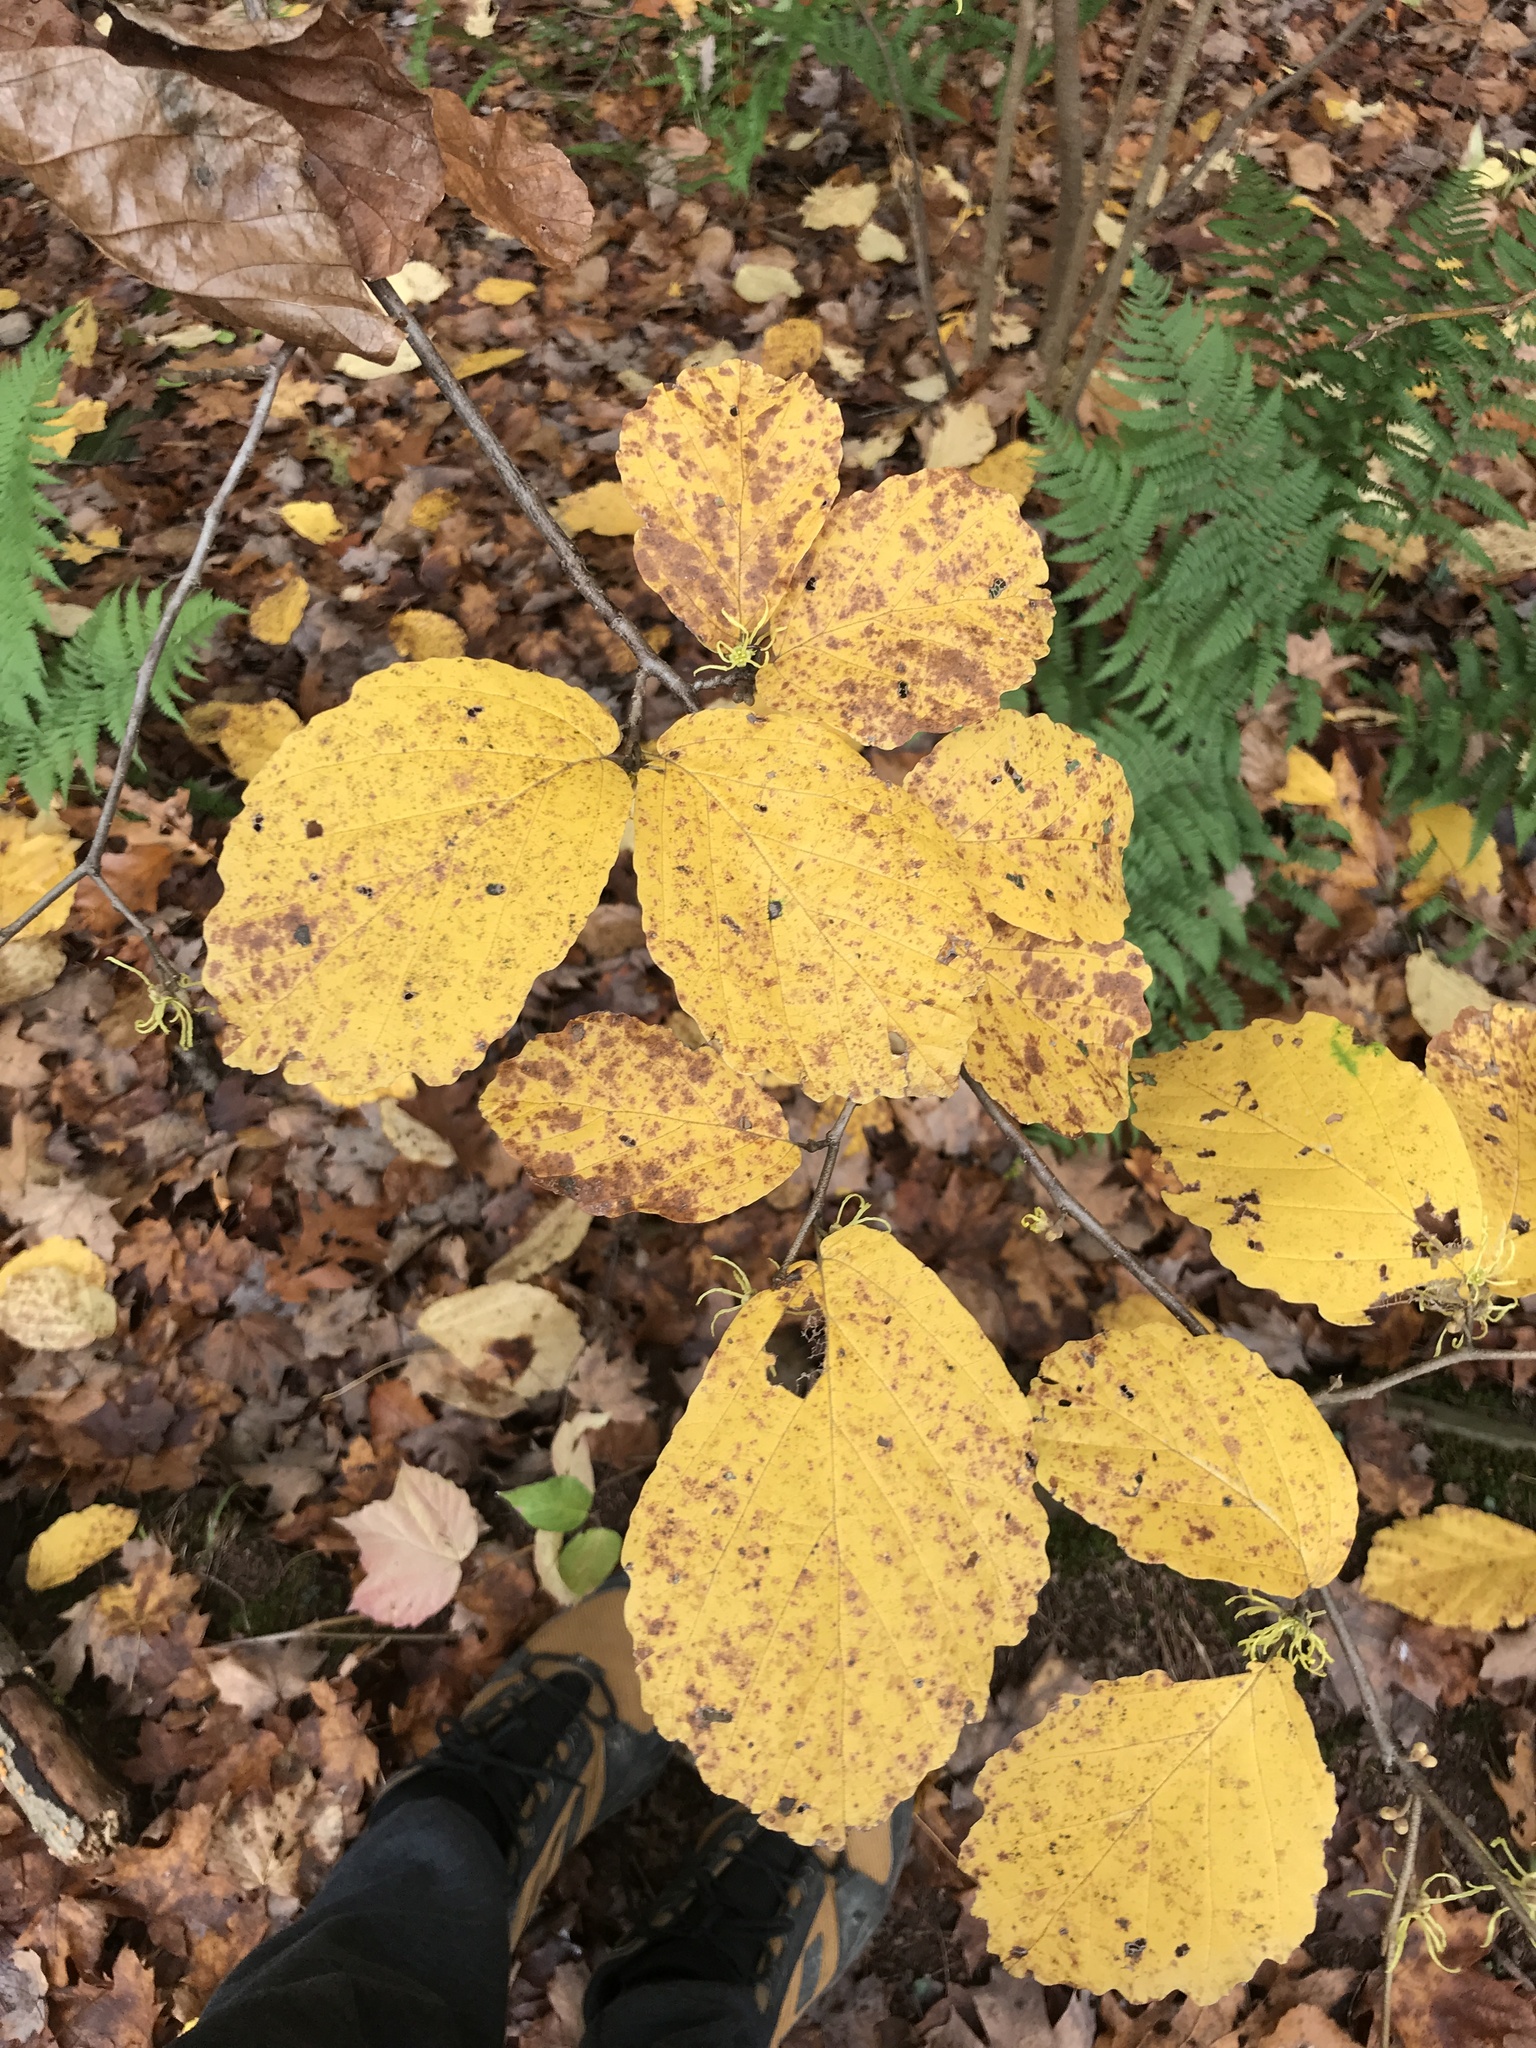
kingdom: Plantae
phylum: Tracheophyta
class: Magnoliopsida
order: Saxifragales
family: Hamamelidaceae
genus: Hamamelis
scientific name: Hamamelis virginiana
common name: Witch-hazel
